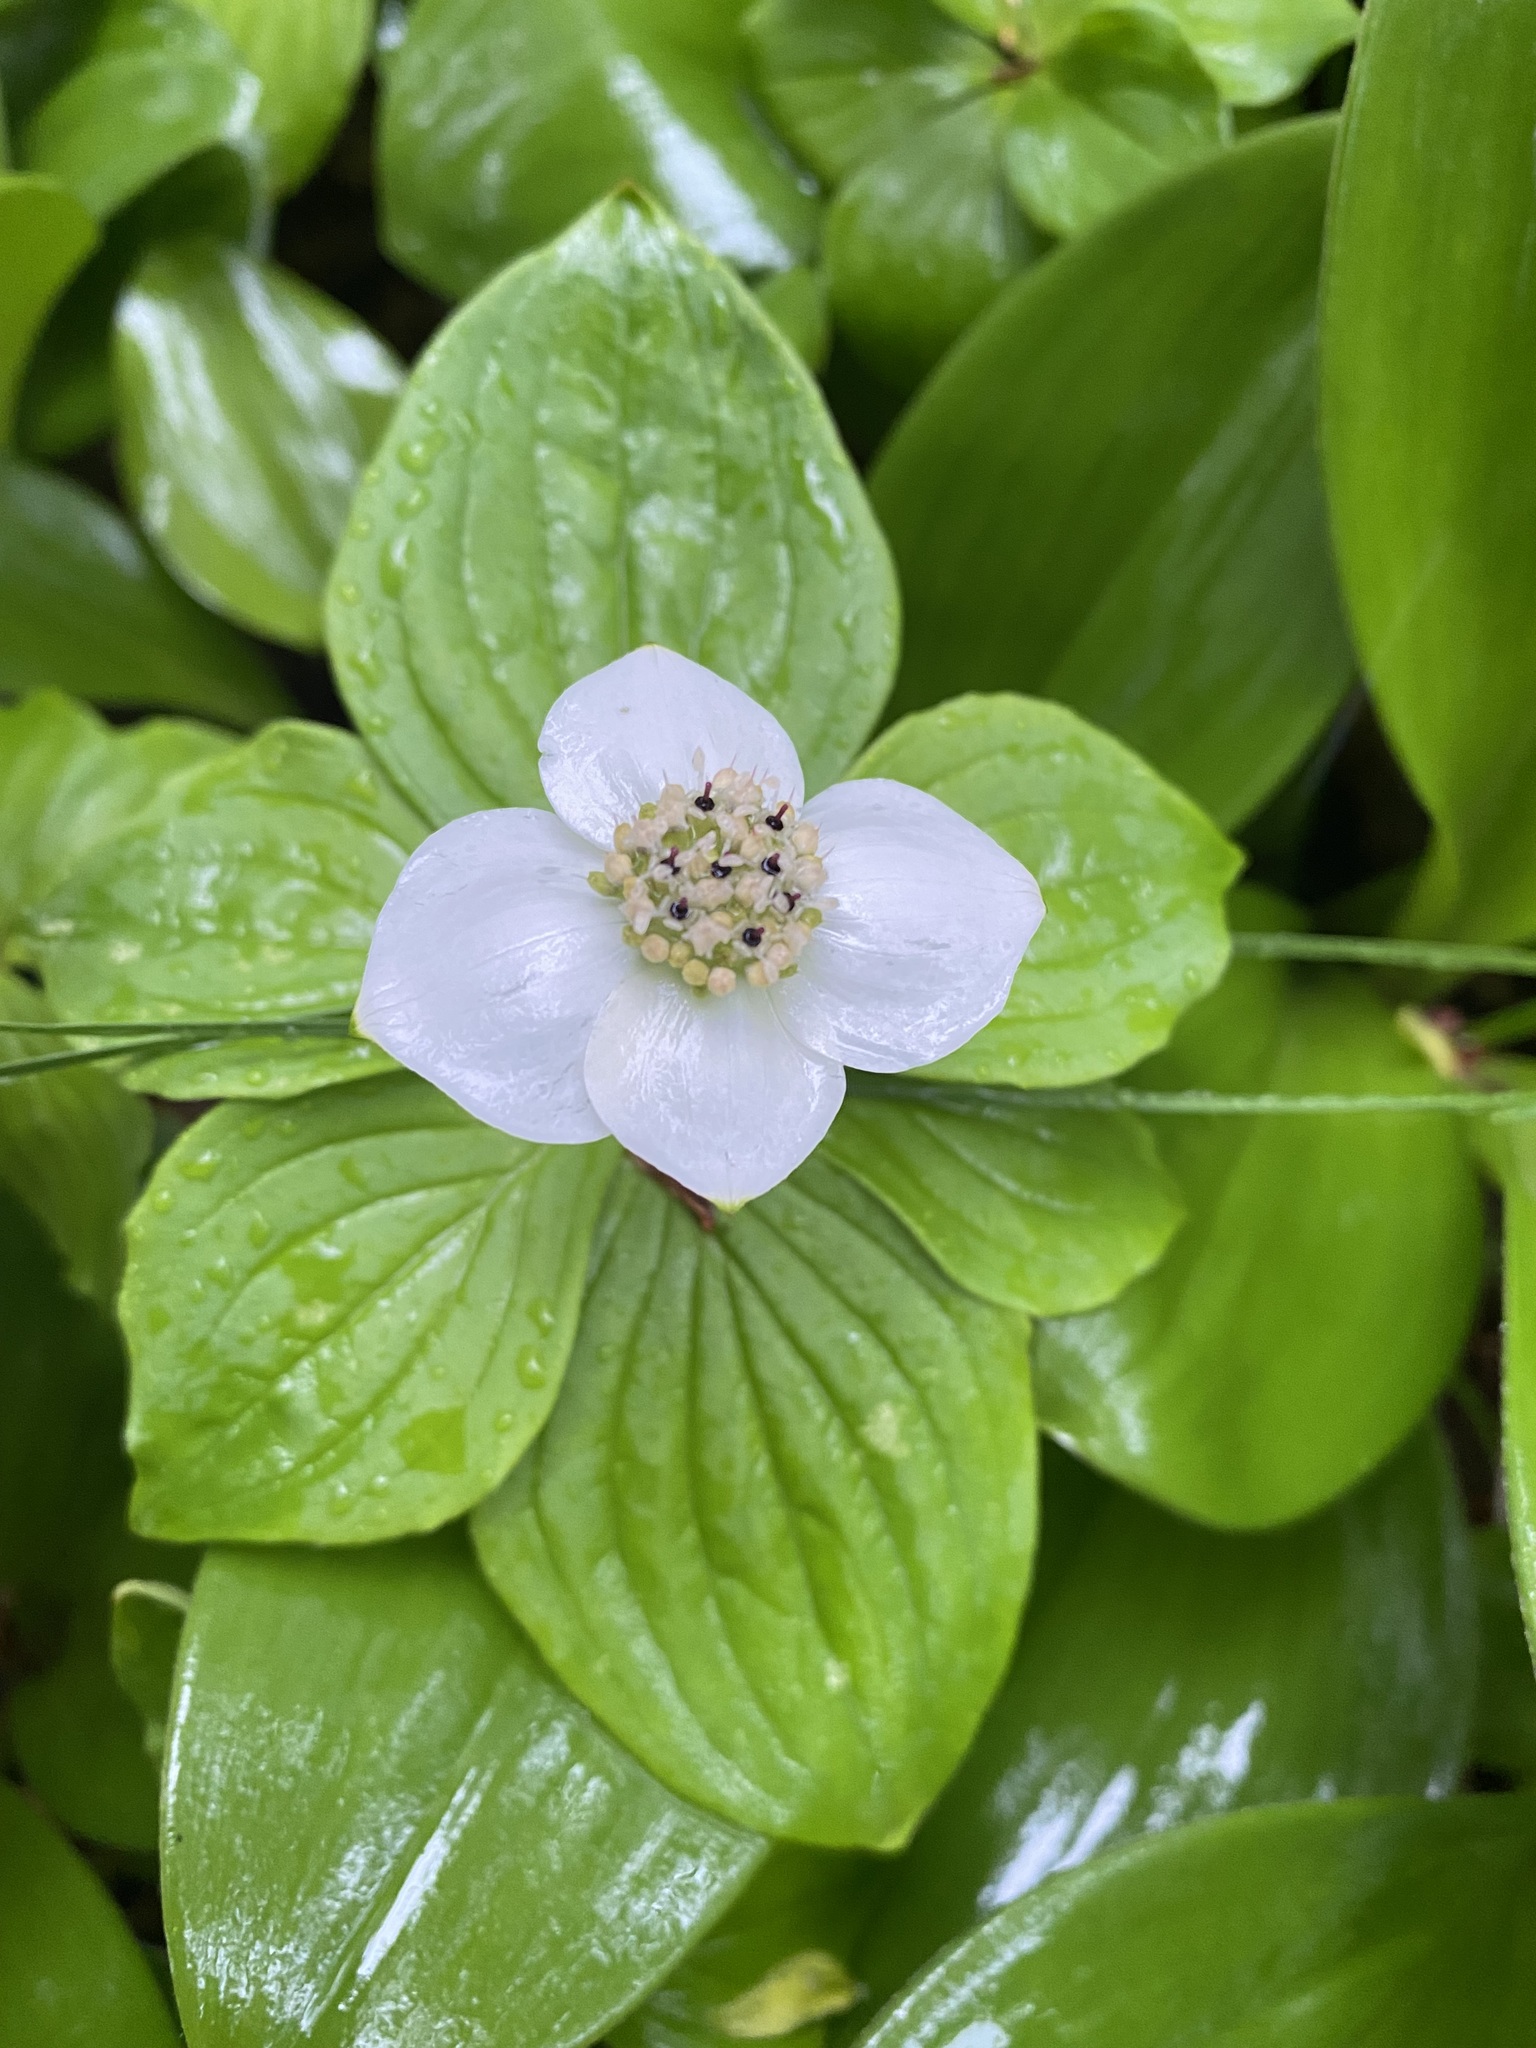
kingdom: Plantae
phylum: Tracheophyta
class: Magnoliopsida
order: Cornales
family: Cornaceae
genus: Cornus
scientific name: Cornus canadensis
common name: Creeping dogwood
